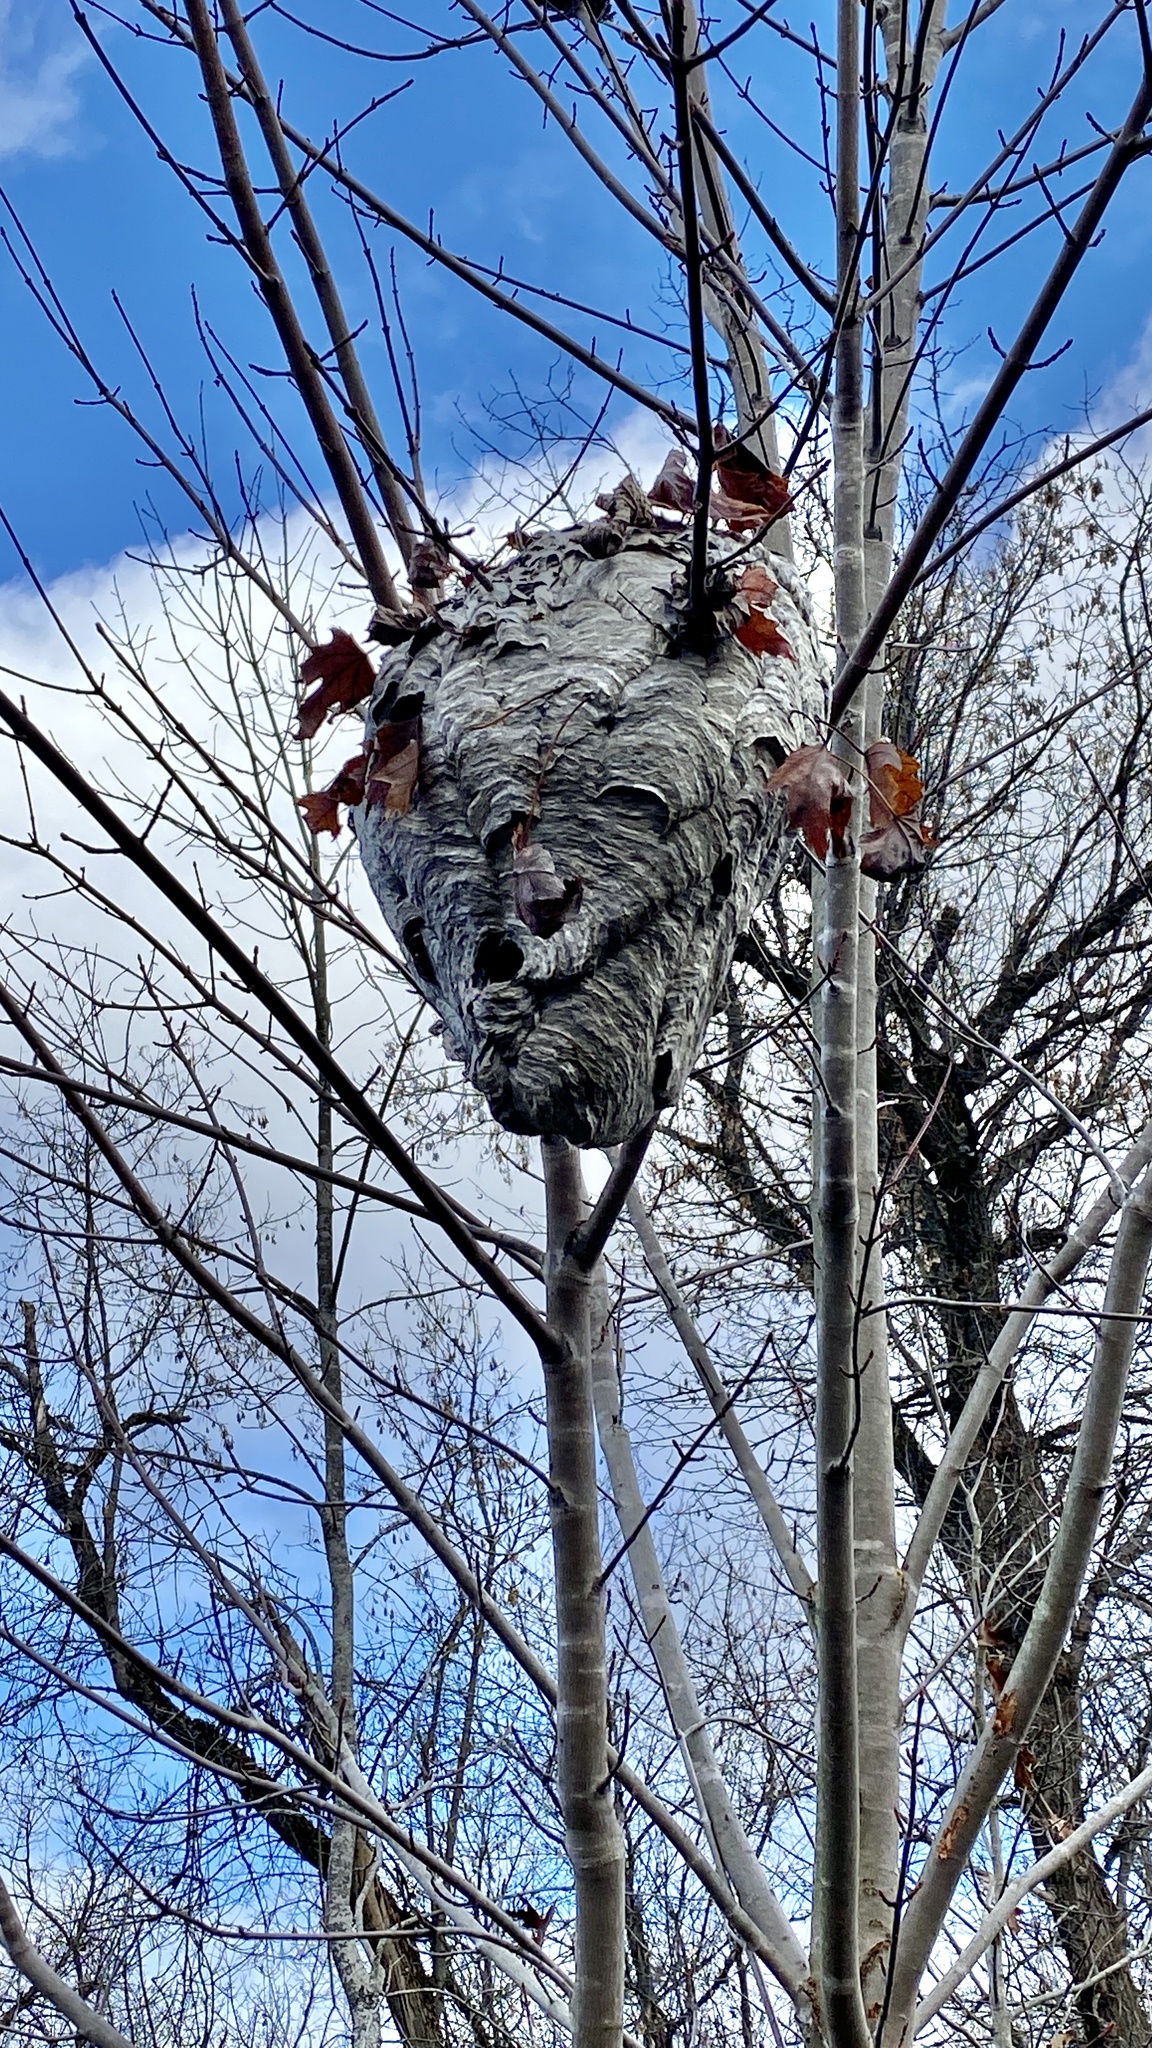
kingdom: Animalia
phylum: Arthropoda
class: Insecta
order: Hymenoptera
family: Vespidae
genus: Dolichovespula
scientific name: Dolichovespula maculata
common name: Bald-faced hornet
